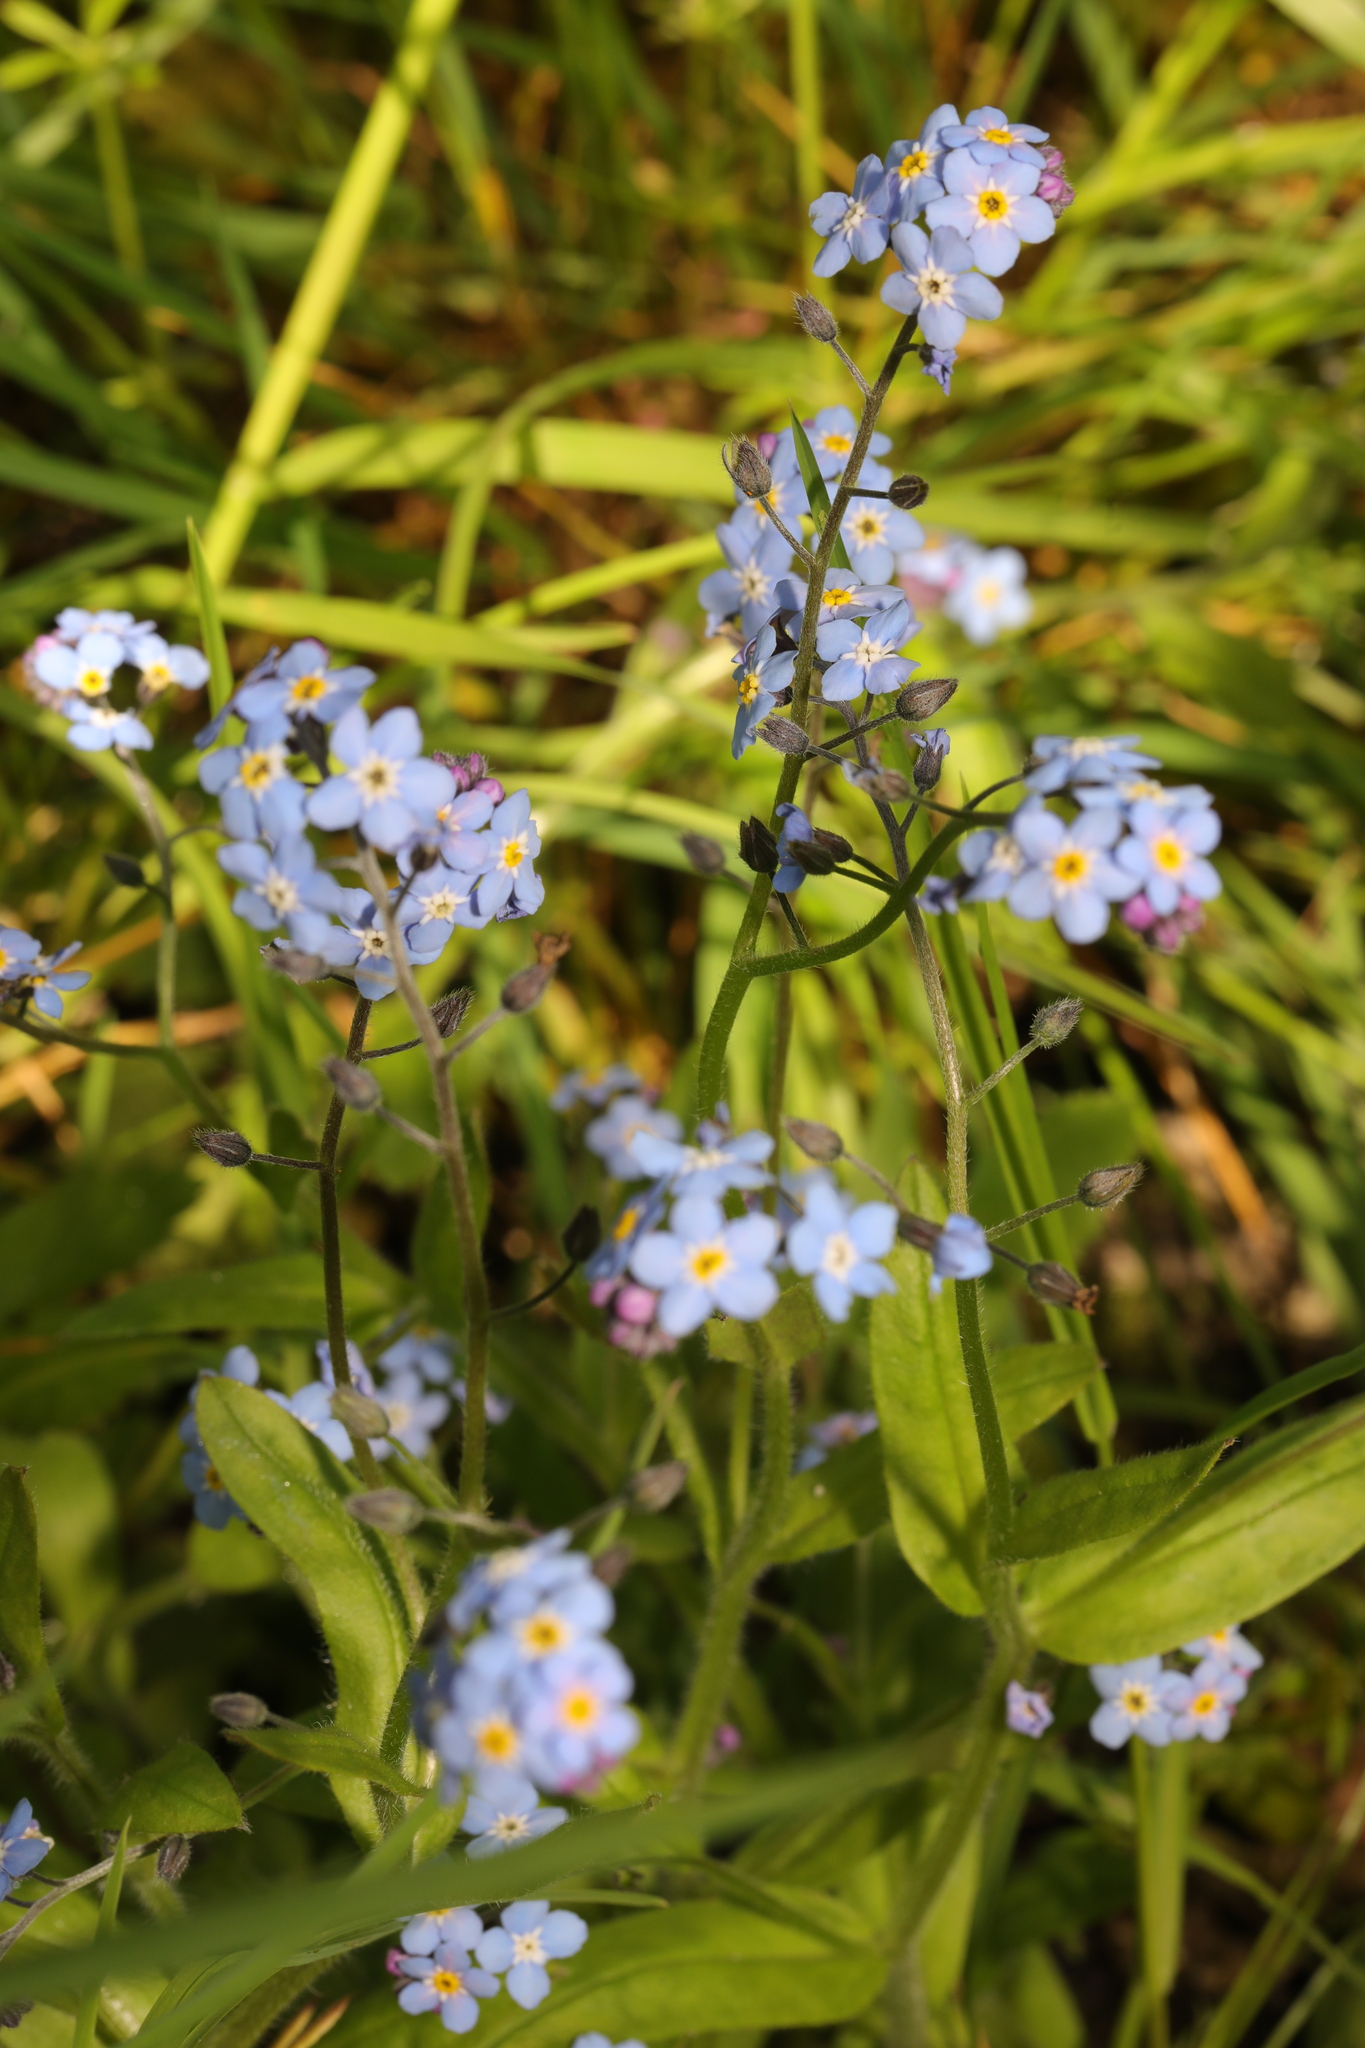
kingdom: Plantae
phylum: Tracheophyta
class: Magnoliopsida
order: Boraginales
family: Boraginaceae
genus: Myosotis
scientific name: Myosotis sylvatica
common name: Wood forget-me-not
